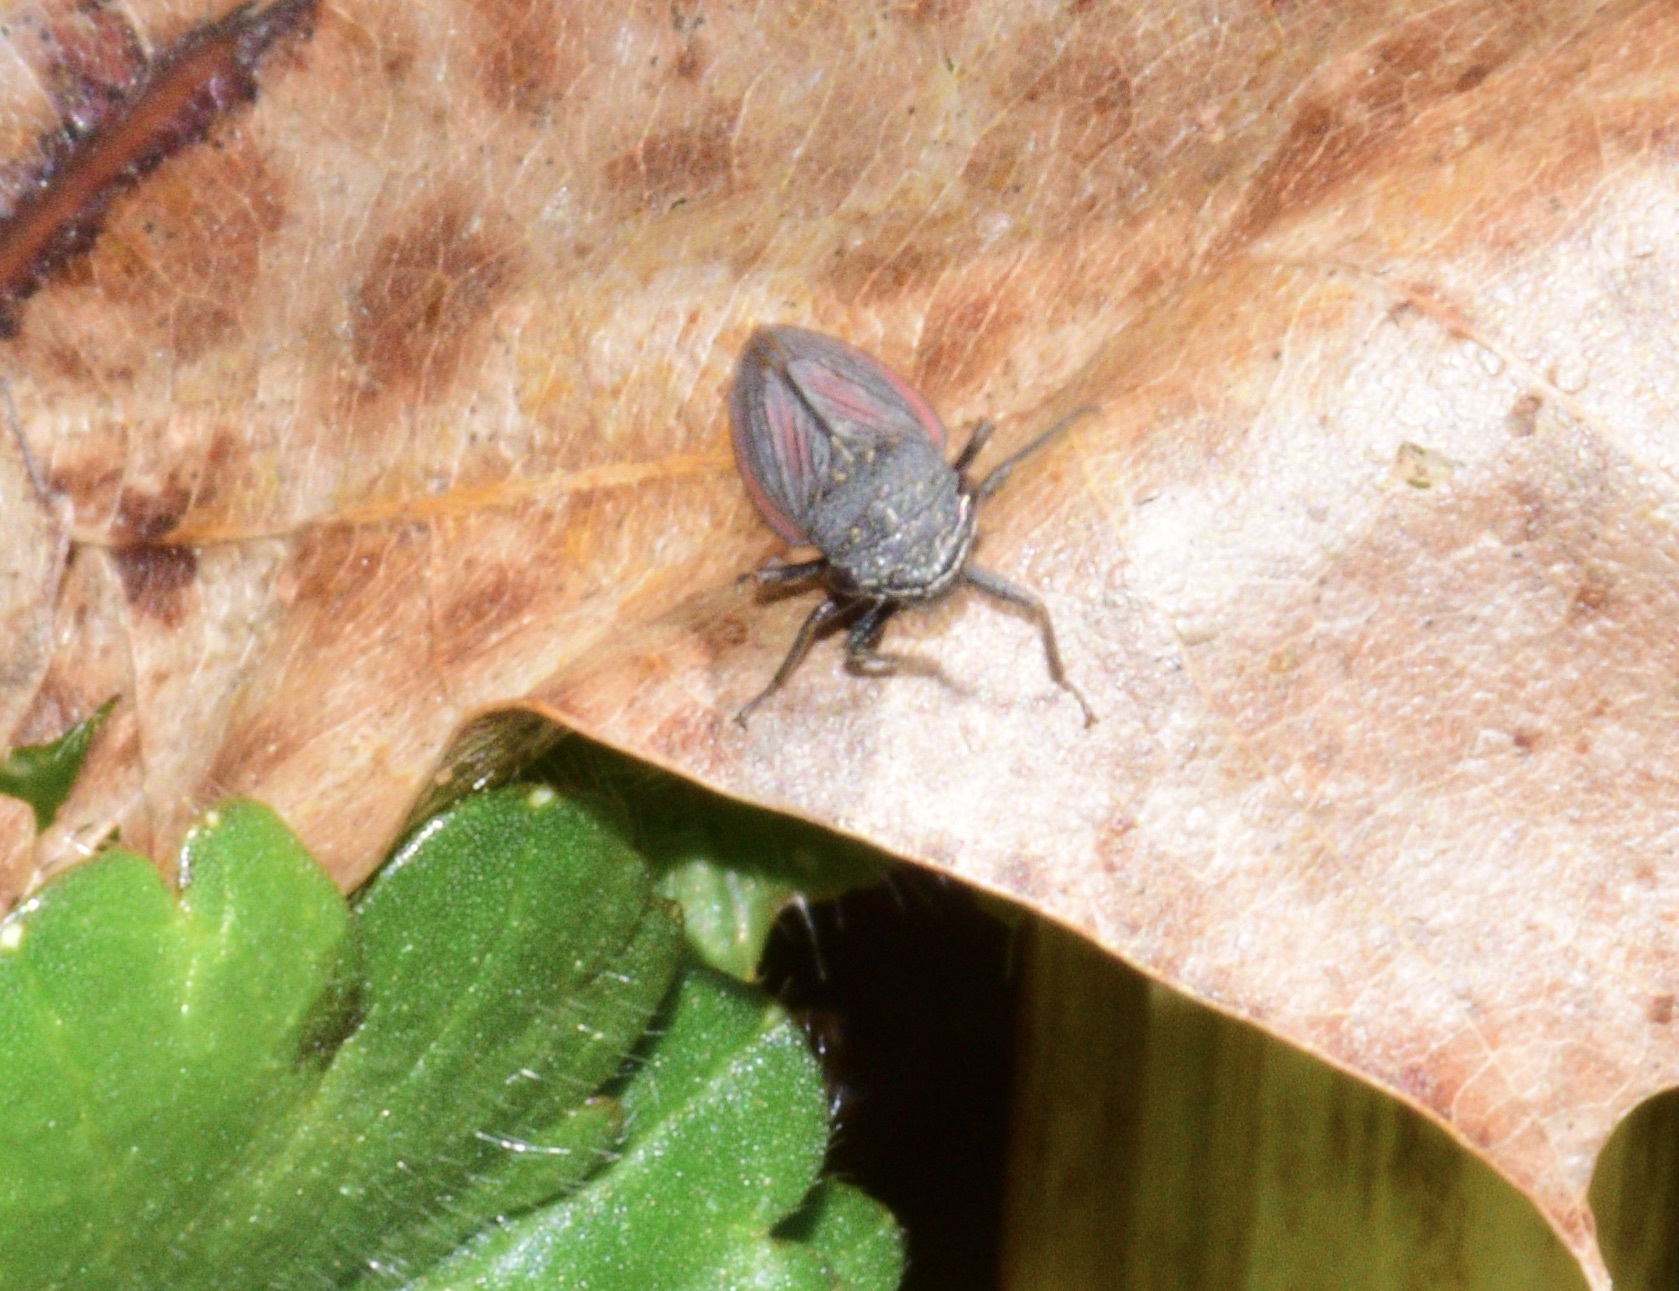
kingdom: Animalia
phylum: Arthropoda
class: Insecta
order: Hemiptera
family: Cicadellidae
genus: Cuerna
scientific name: Cuerna striata
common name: Striped leafhopper
